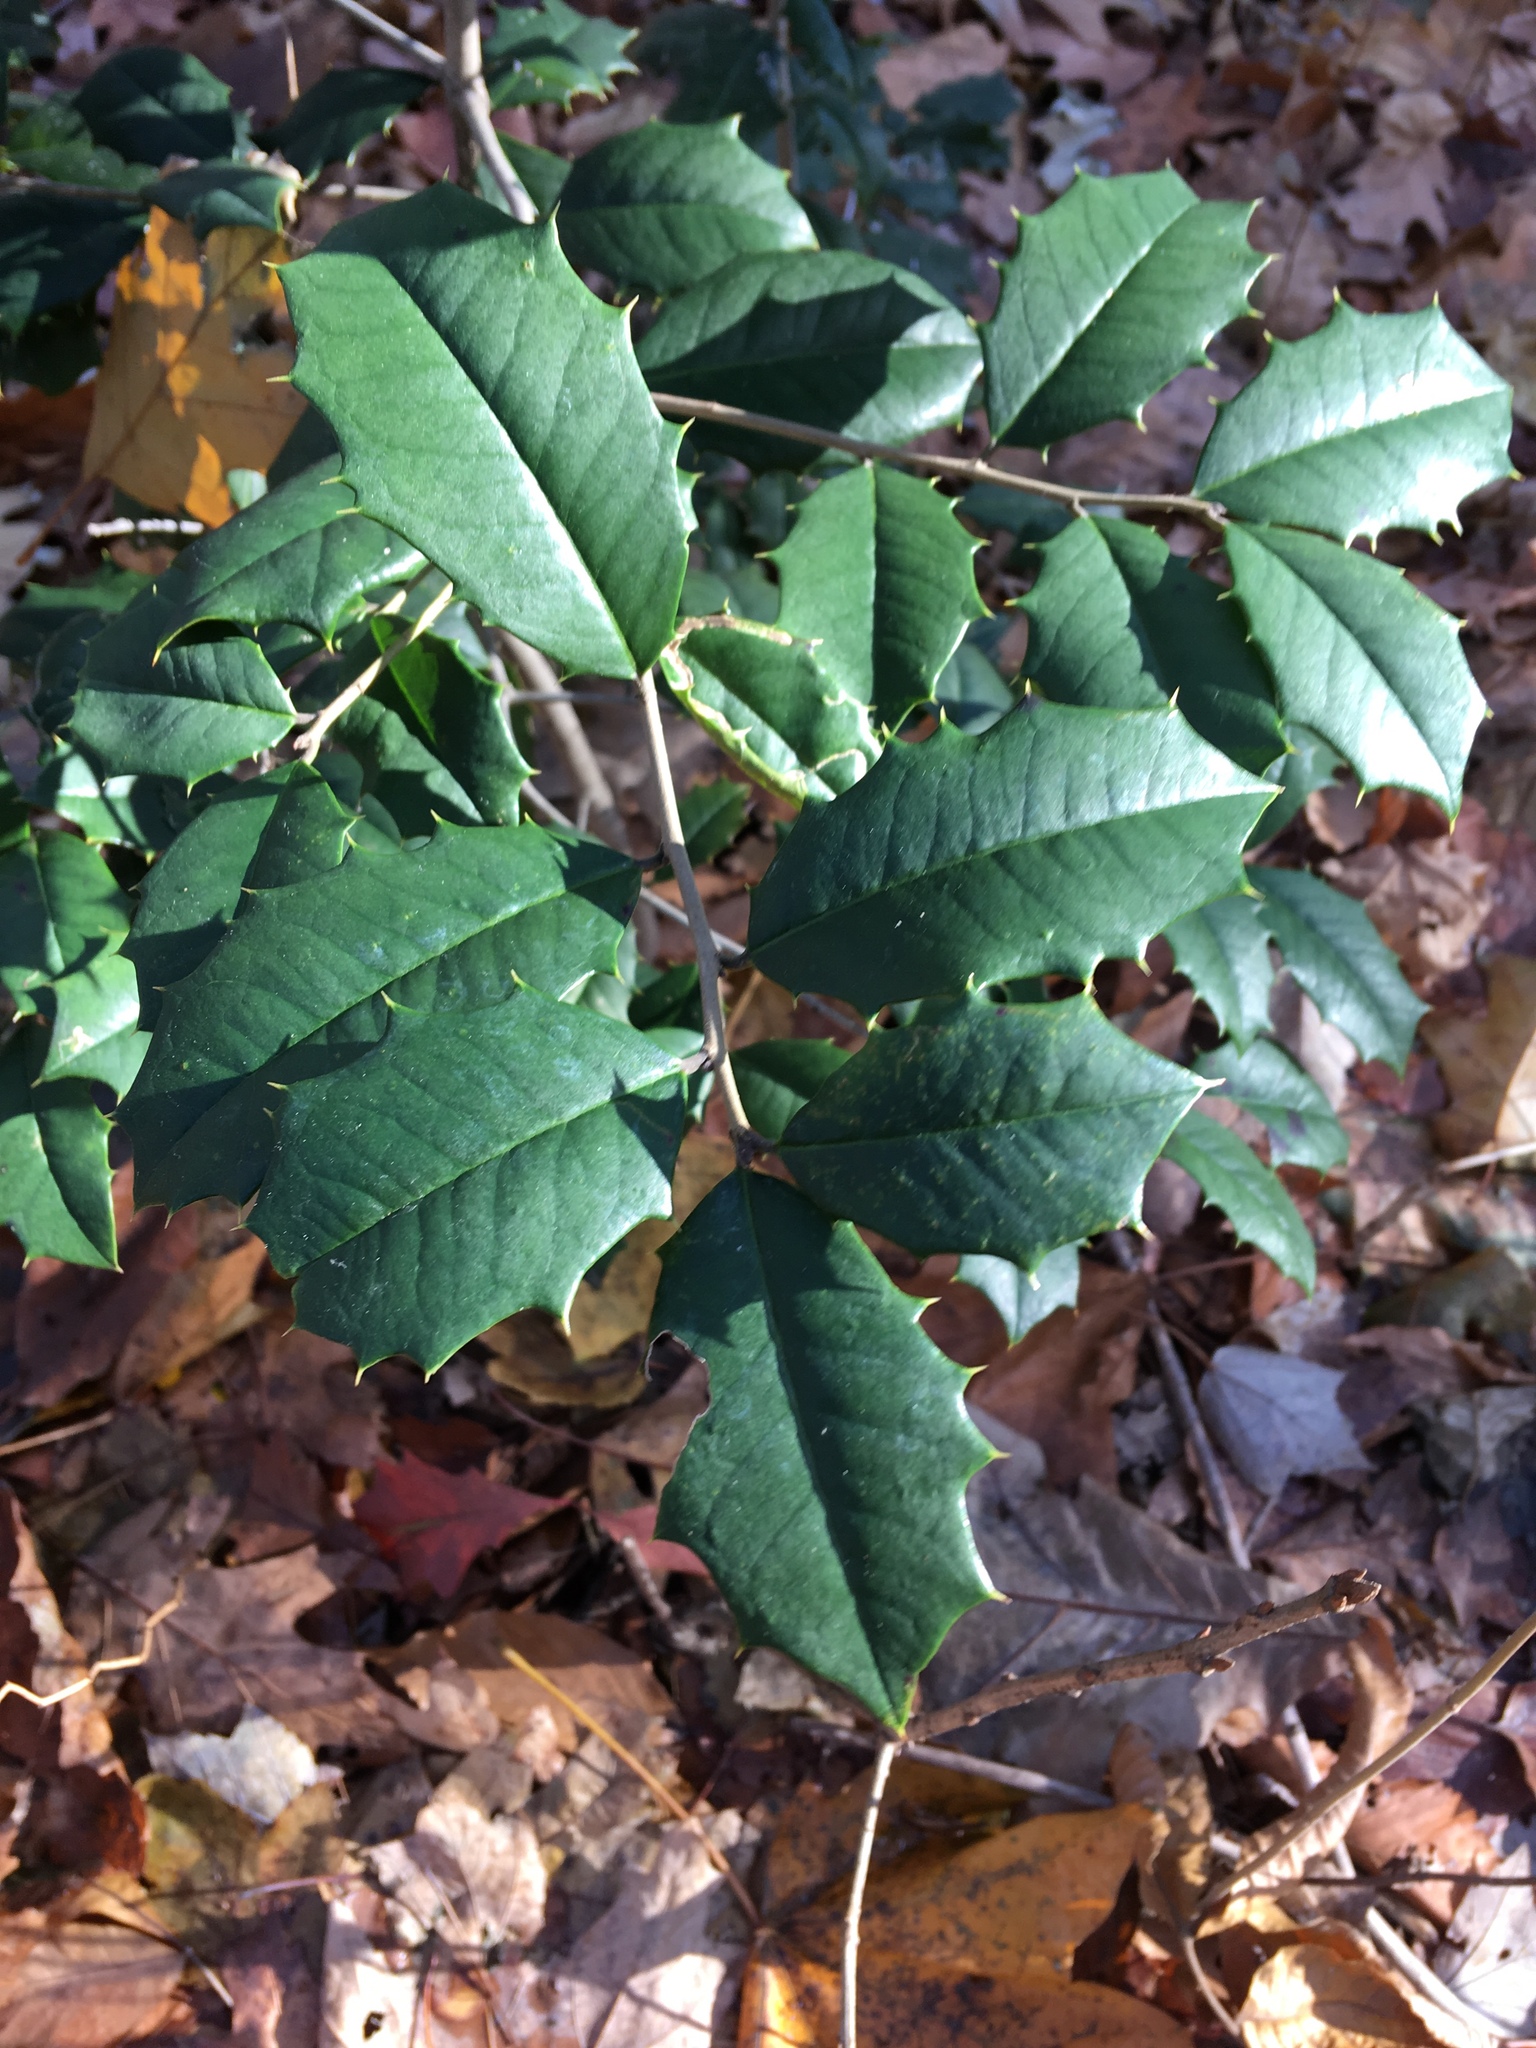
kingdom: Plantae
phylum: Tracheophyta
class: Magnoliopsida
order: Aquifoliales
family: Aquifoliaceae
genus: Ilex
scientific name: Ilex opaca
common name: American holly
